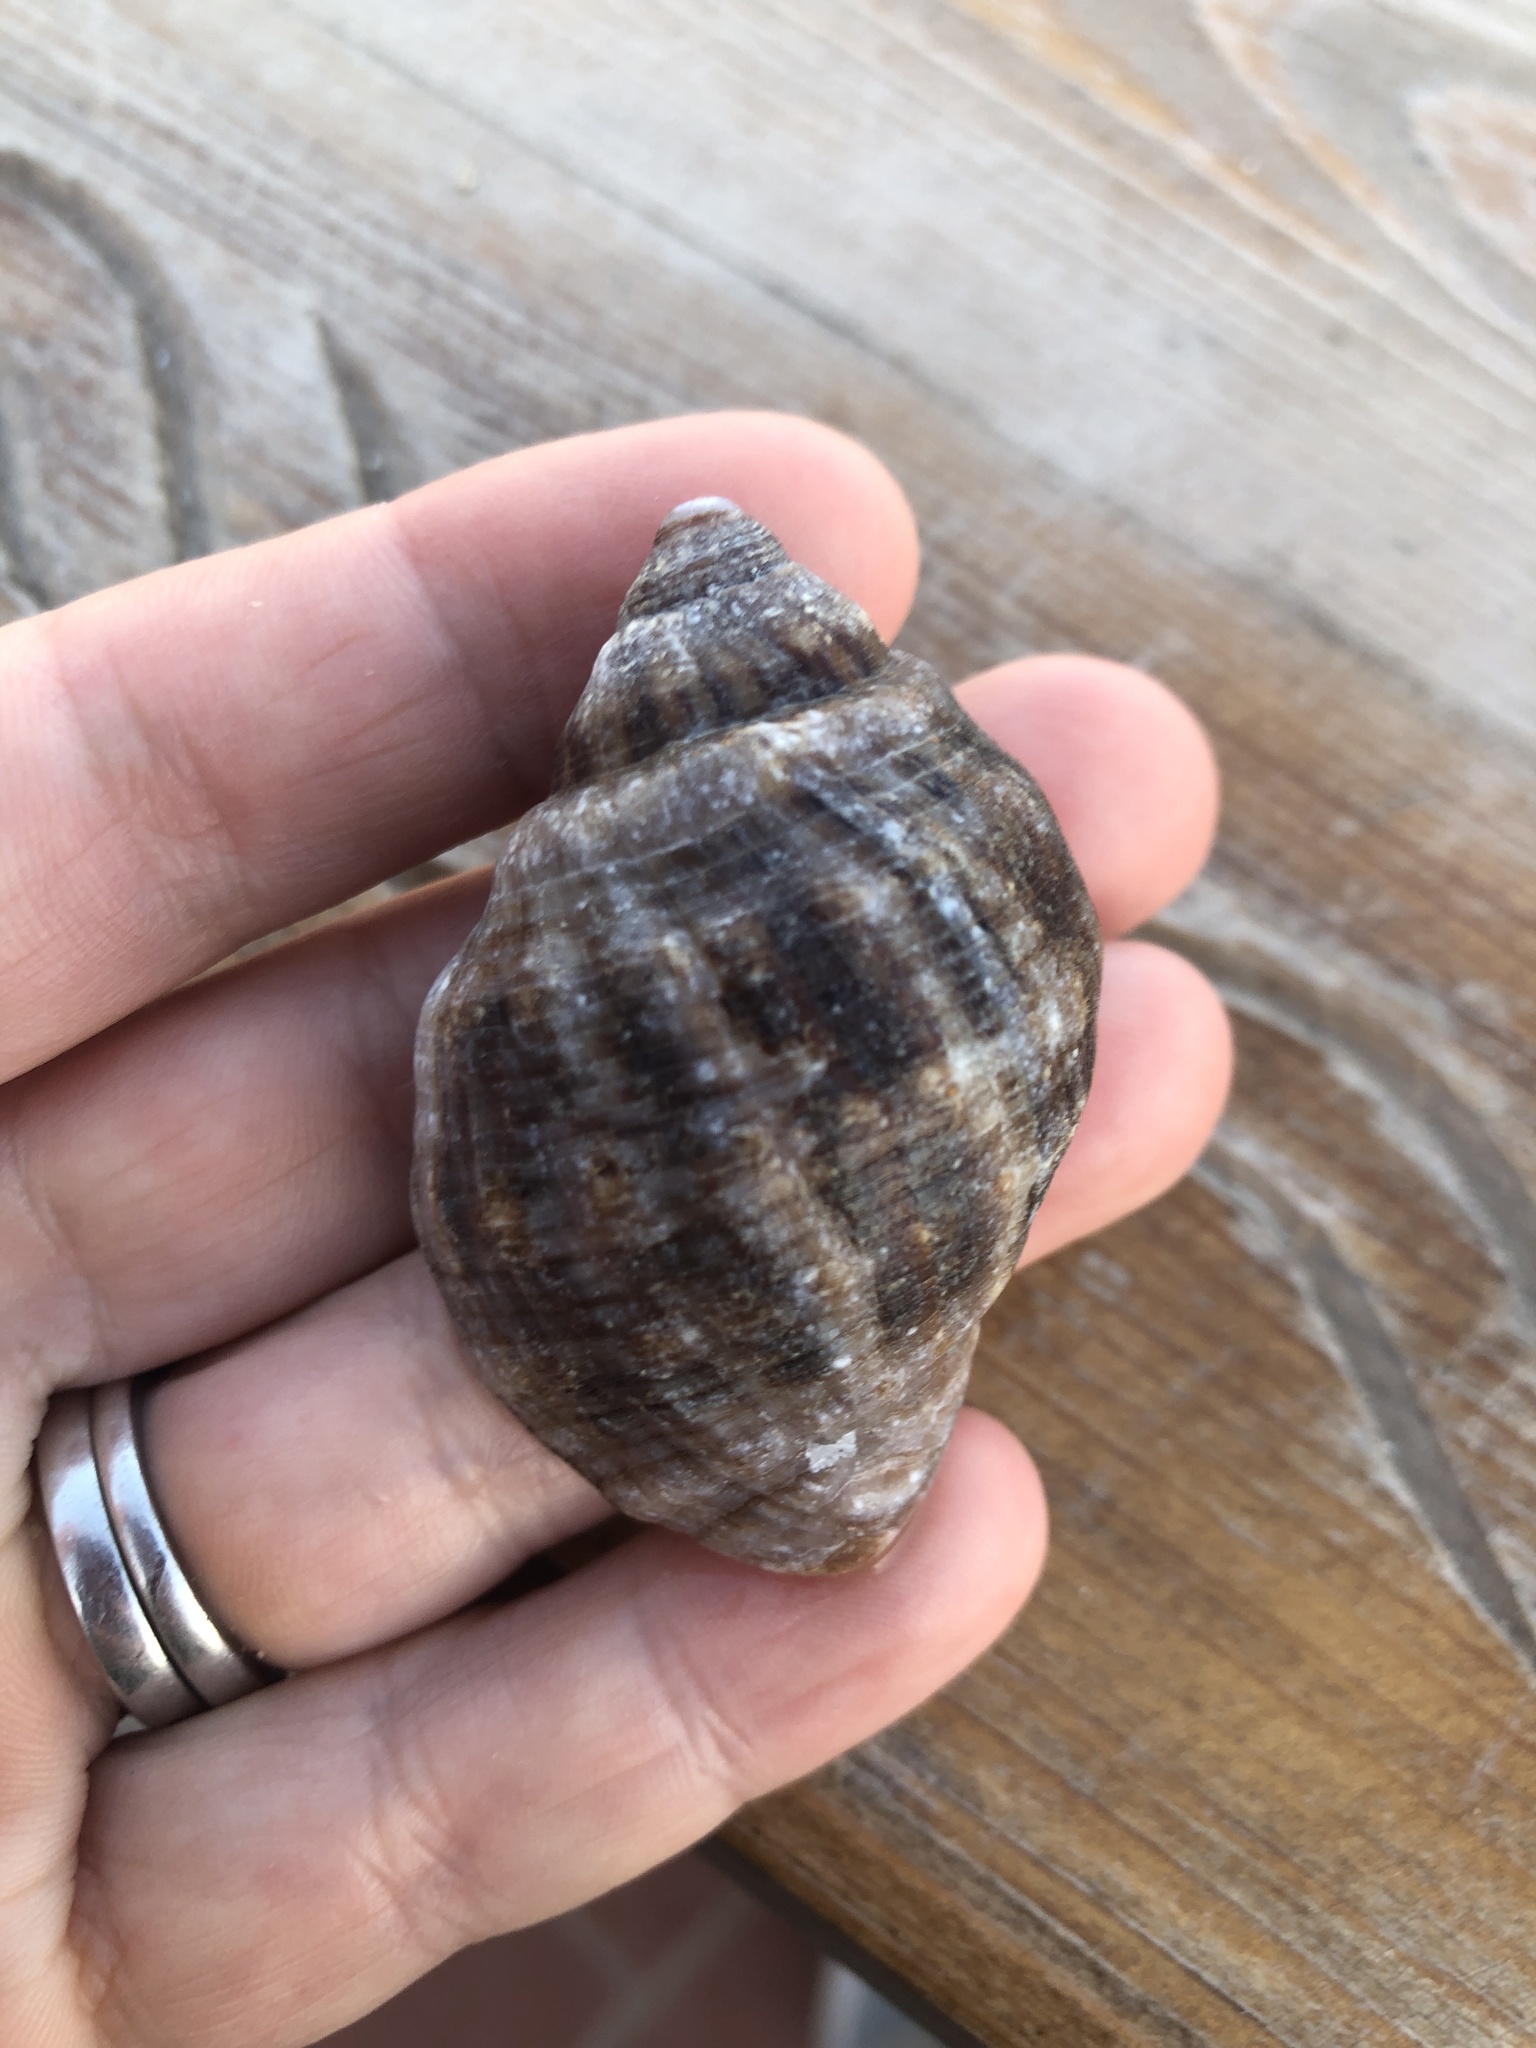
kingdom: Animalia
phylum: Mollusca
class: Gastropoda
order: Neogastropoda
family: Muricidae
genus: Stramonita
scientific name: Stramonita haemastoma
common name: Florida dog winkle
